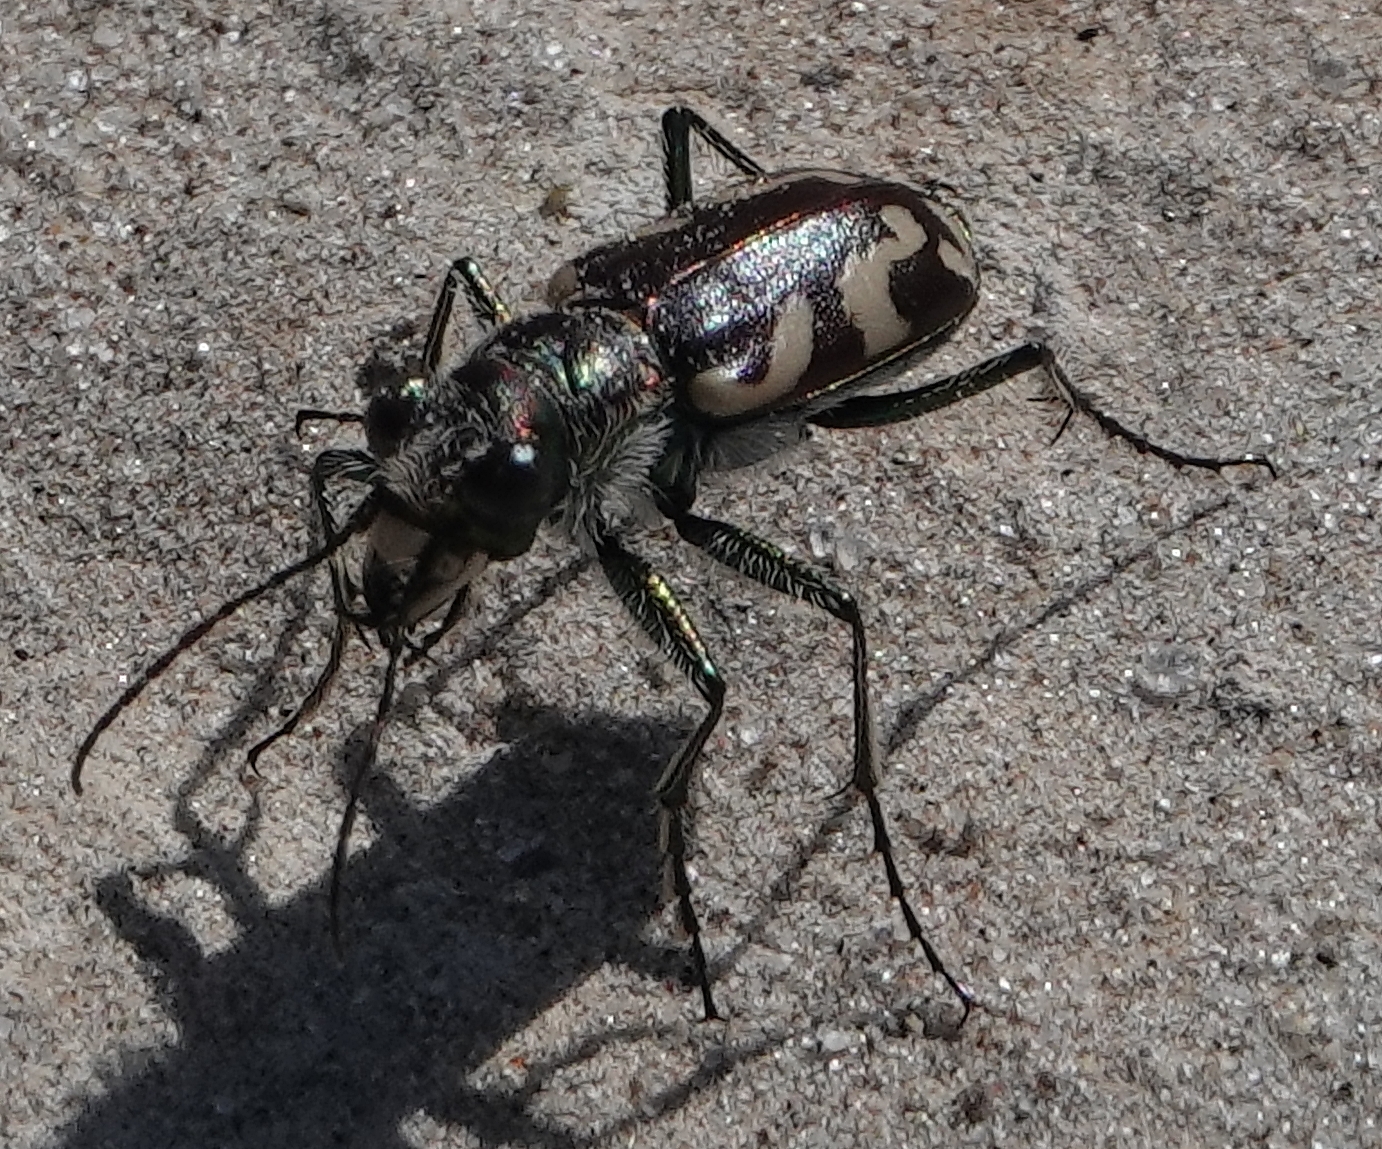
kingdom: Animalia
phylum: Arthropoda
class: Insecta
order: Coleoptera
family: Carabidae
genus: Cicindela
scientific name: Cicindela fulgida
